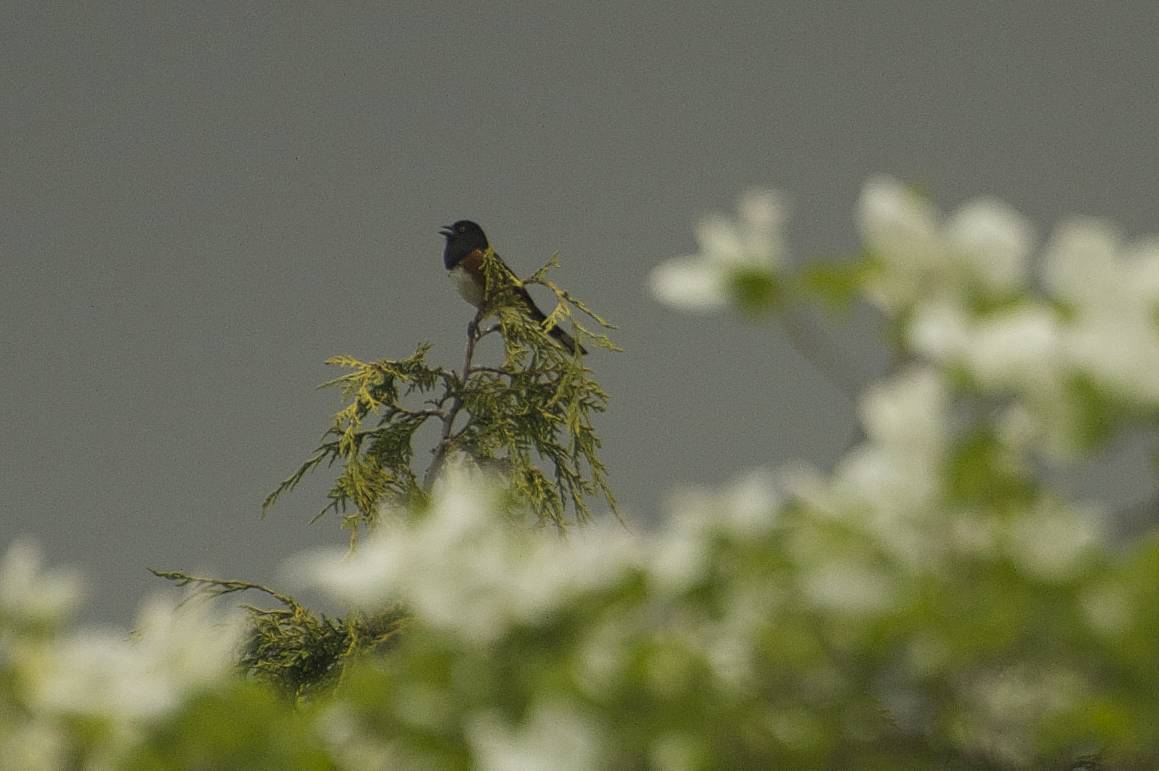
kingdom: Animalia
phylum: Chordata
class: Aves
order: Passeriformes
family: Passerellidae
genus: Pipilo
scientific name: Pipilo maculatus
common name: Spotted towhee
